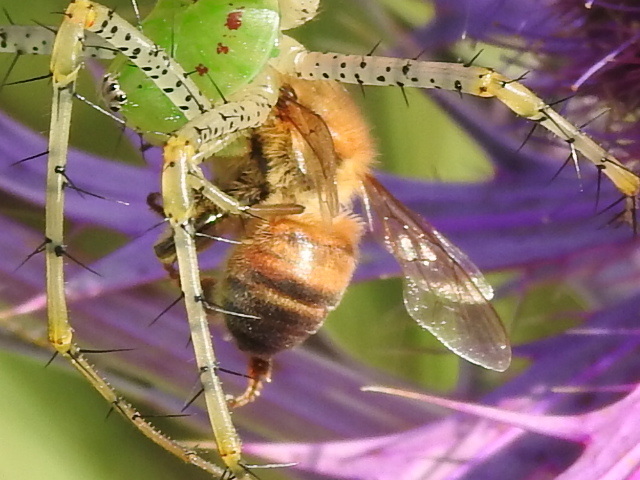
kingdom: Animalia
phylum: Arthropoda
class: Insecta
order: Hymenoptera
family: Apidae
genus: Apis
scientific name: Apis mellifera
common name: Honey bee
